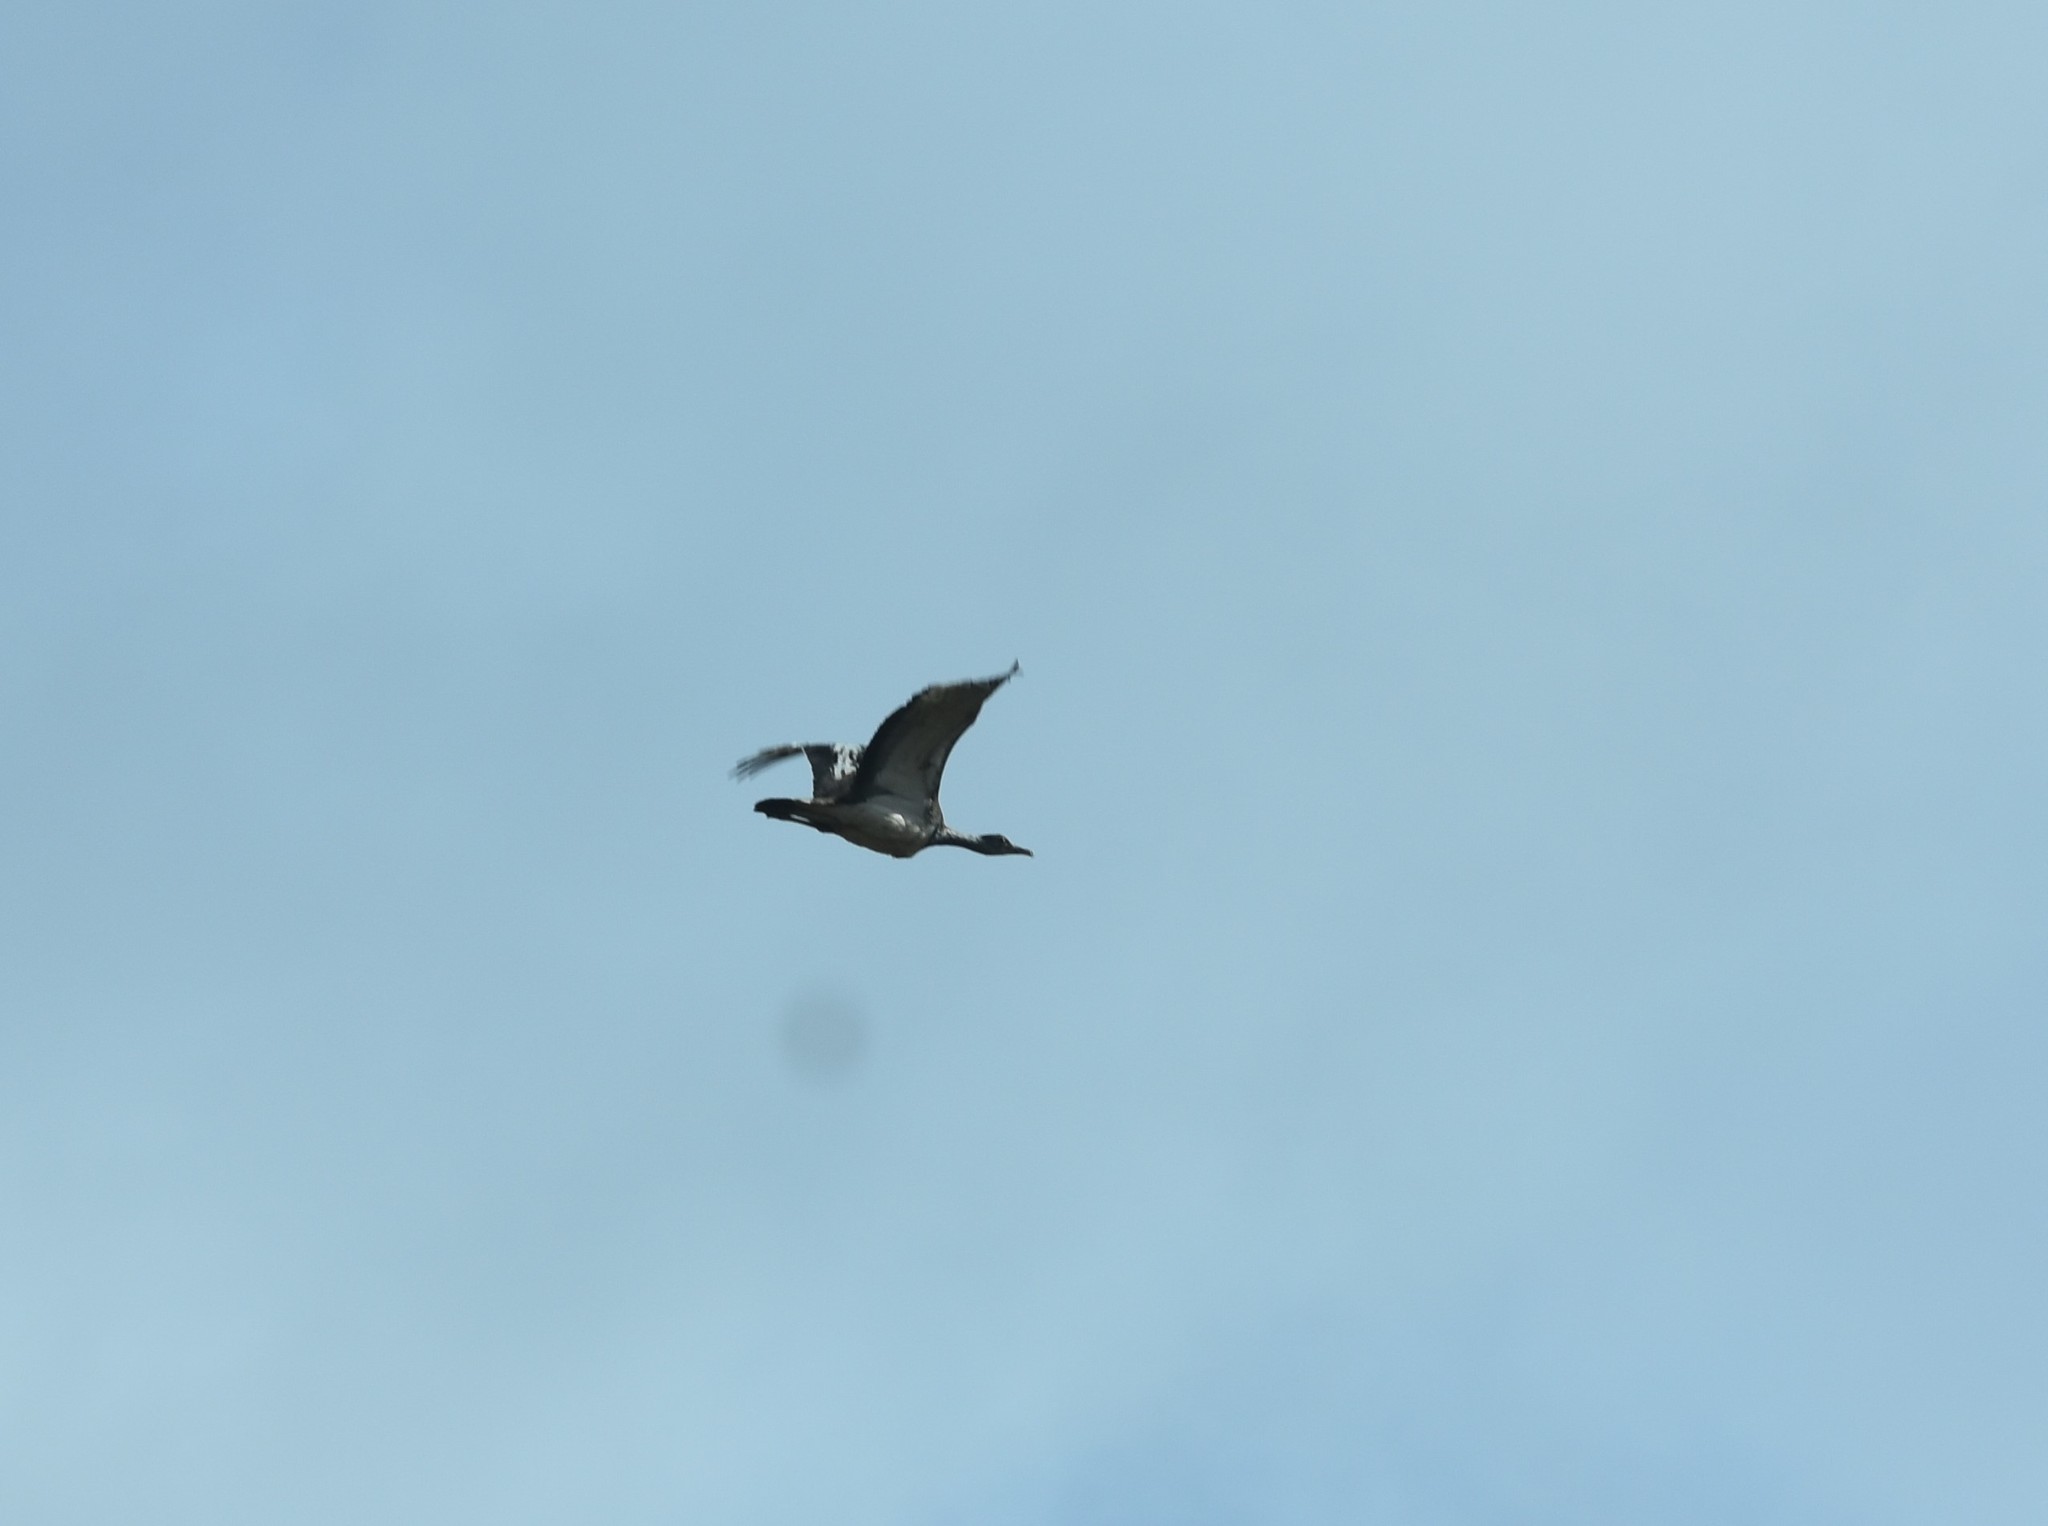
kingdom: Animalia
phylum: Chordata
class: Aves
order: Otidiformes
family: Otididae
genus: Neotis
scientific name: Neotis denhami
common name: Denham's bustard
